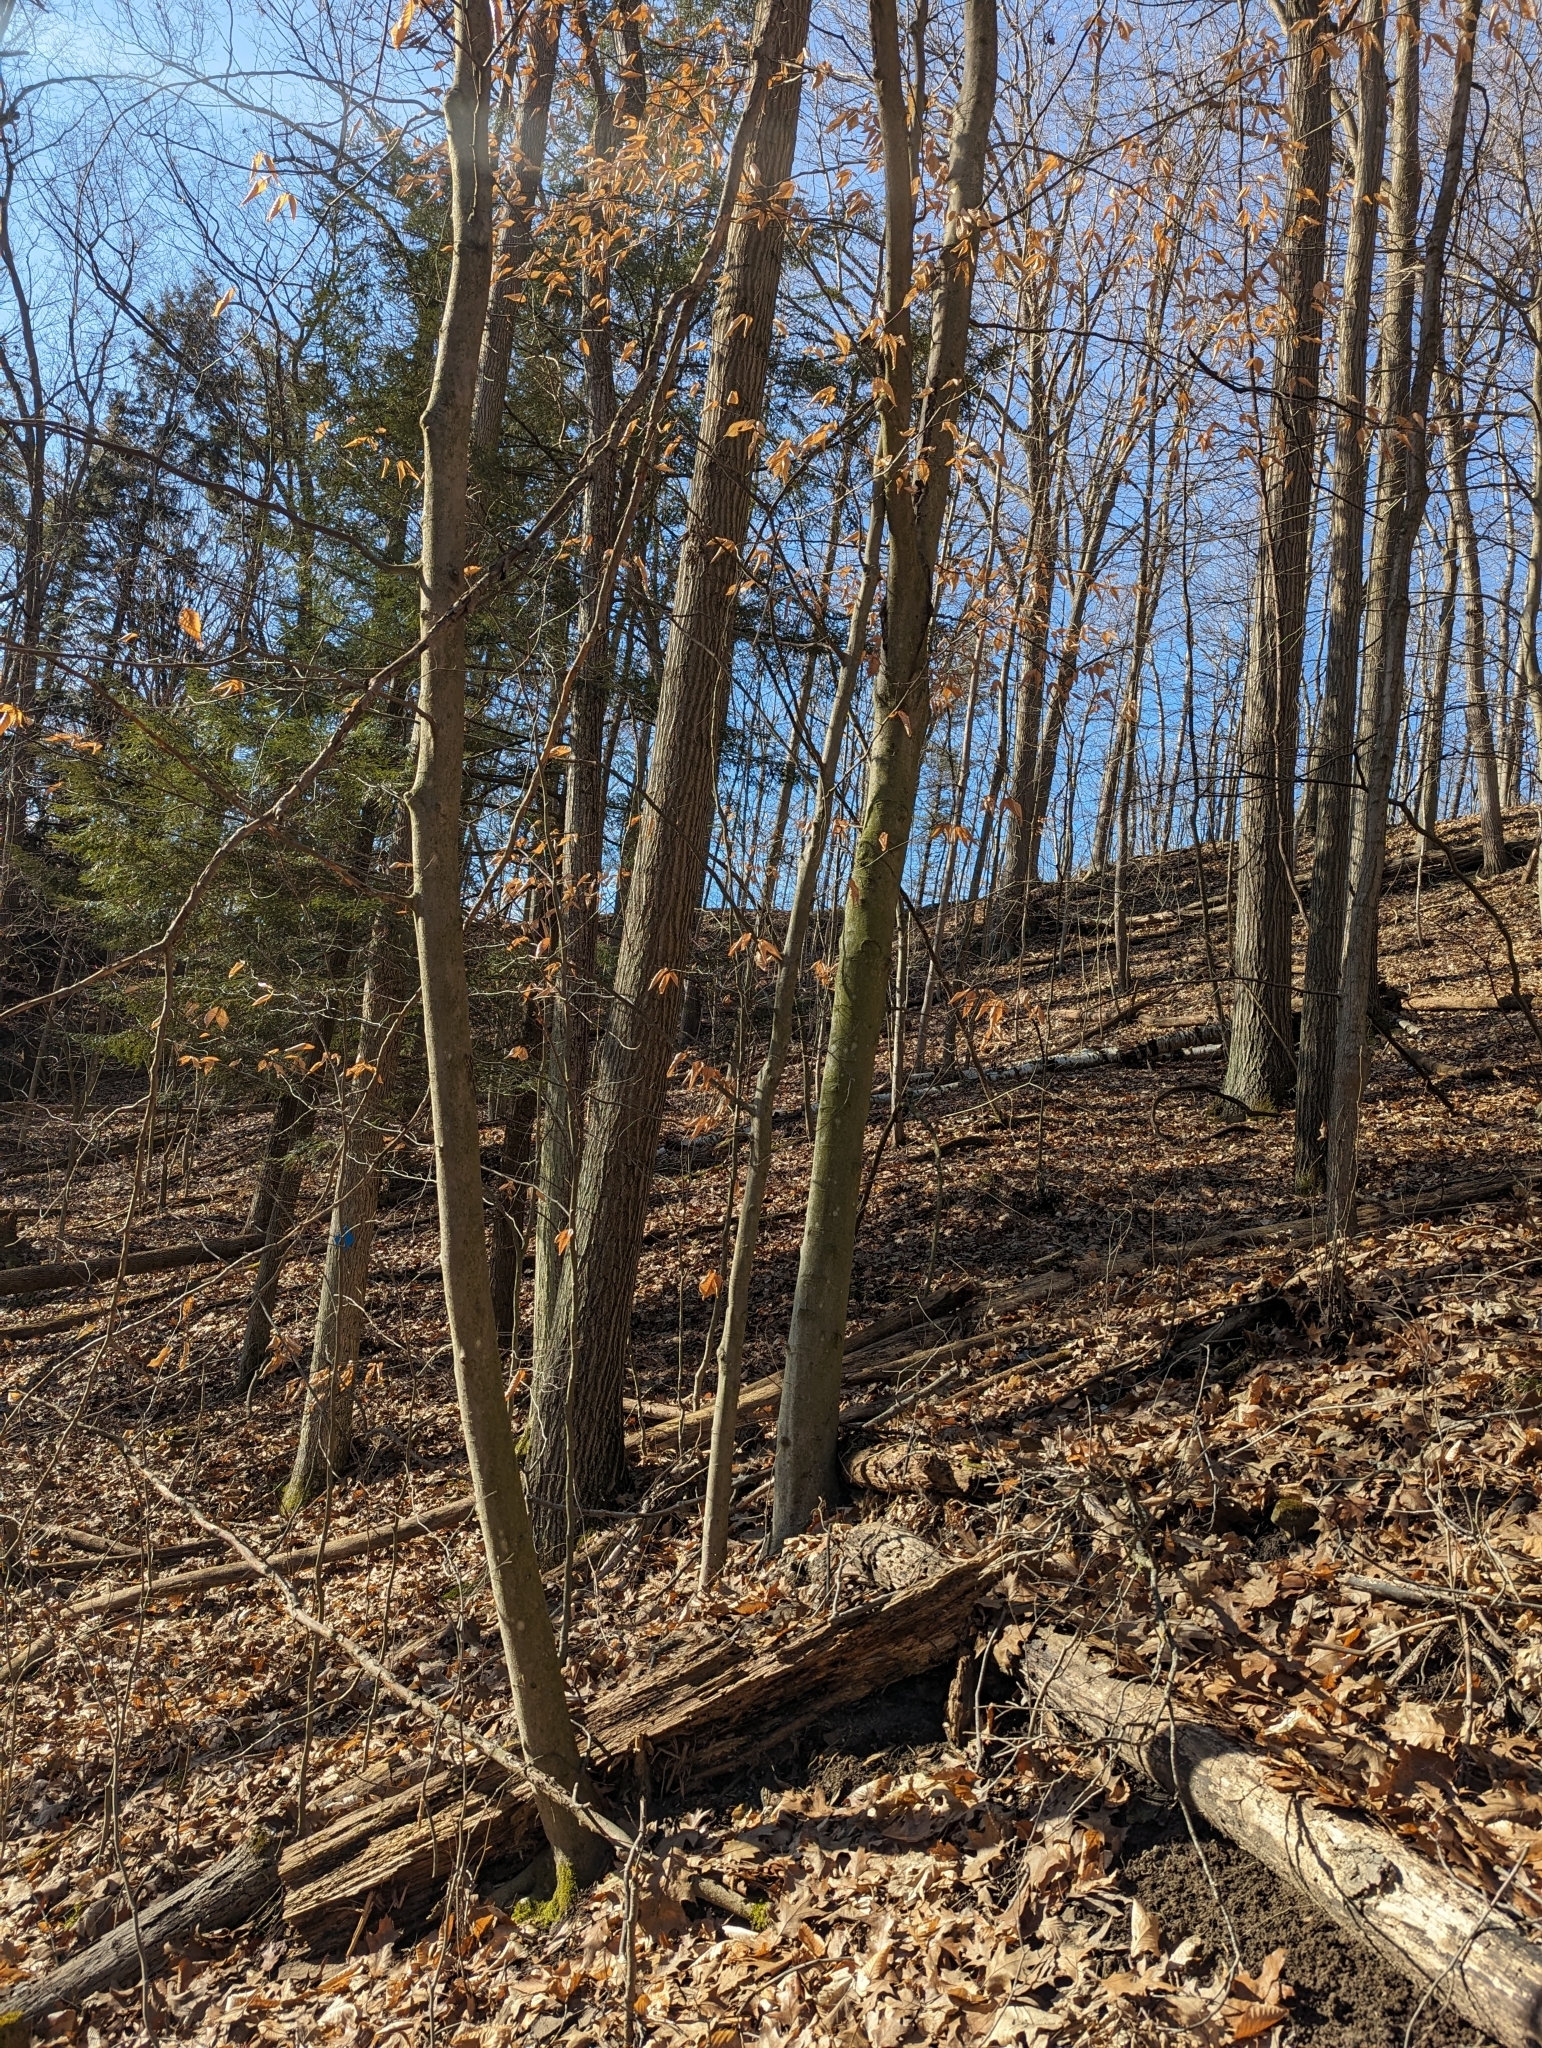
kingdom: Plantae
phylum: Tracheophyta
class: Magnoliopsida
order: Fagales
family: Fagaceae
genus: Fagus
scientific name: Fagus grandifolia
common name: American beech
